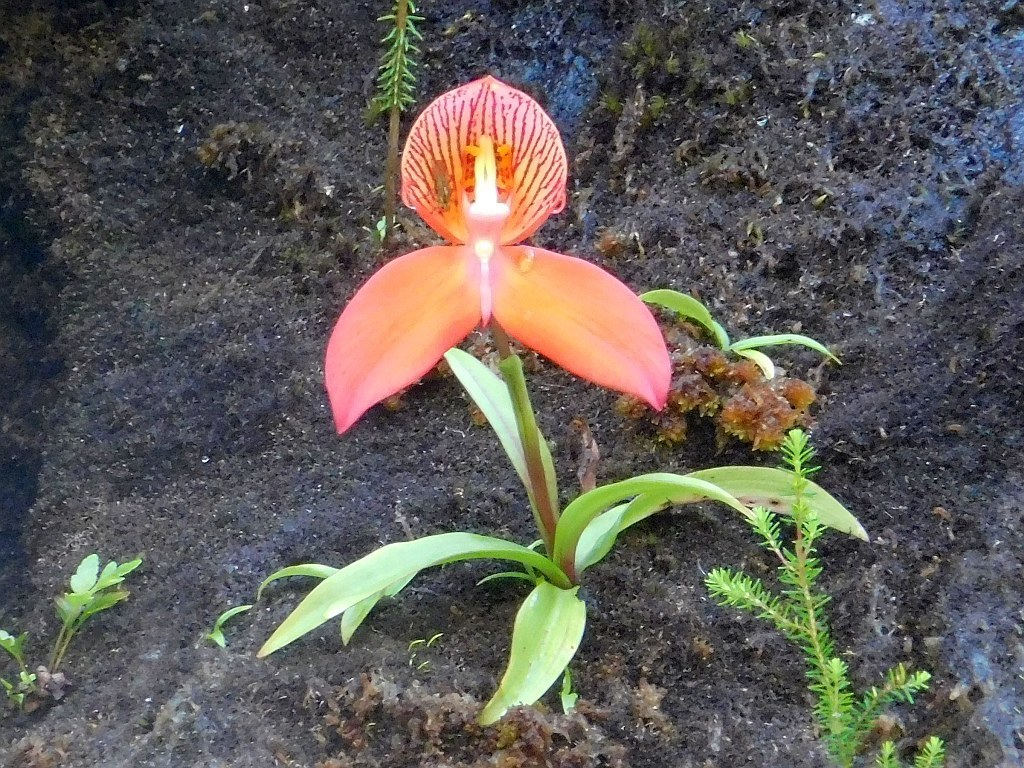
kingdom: Plantae
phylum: Tracheophyta
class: Liliopsida
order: Asparagales
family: Orchidaceae
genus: Disa
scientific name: Disa uniflora
